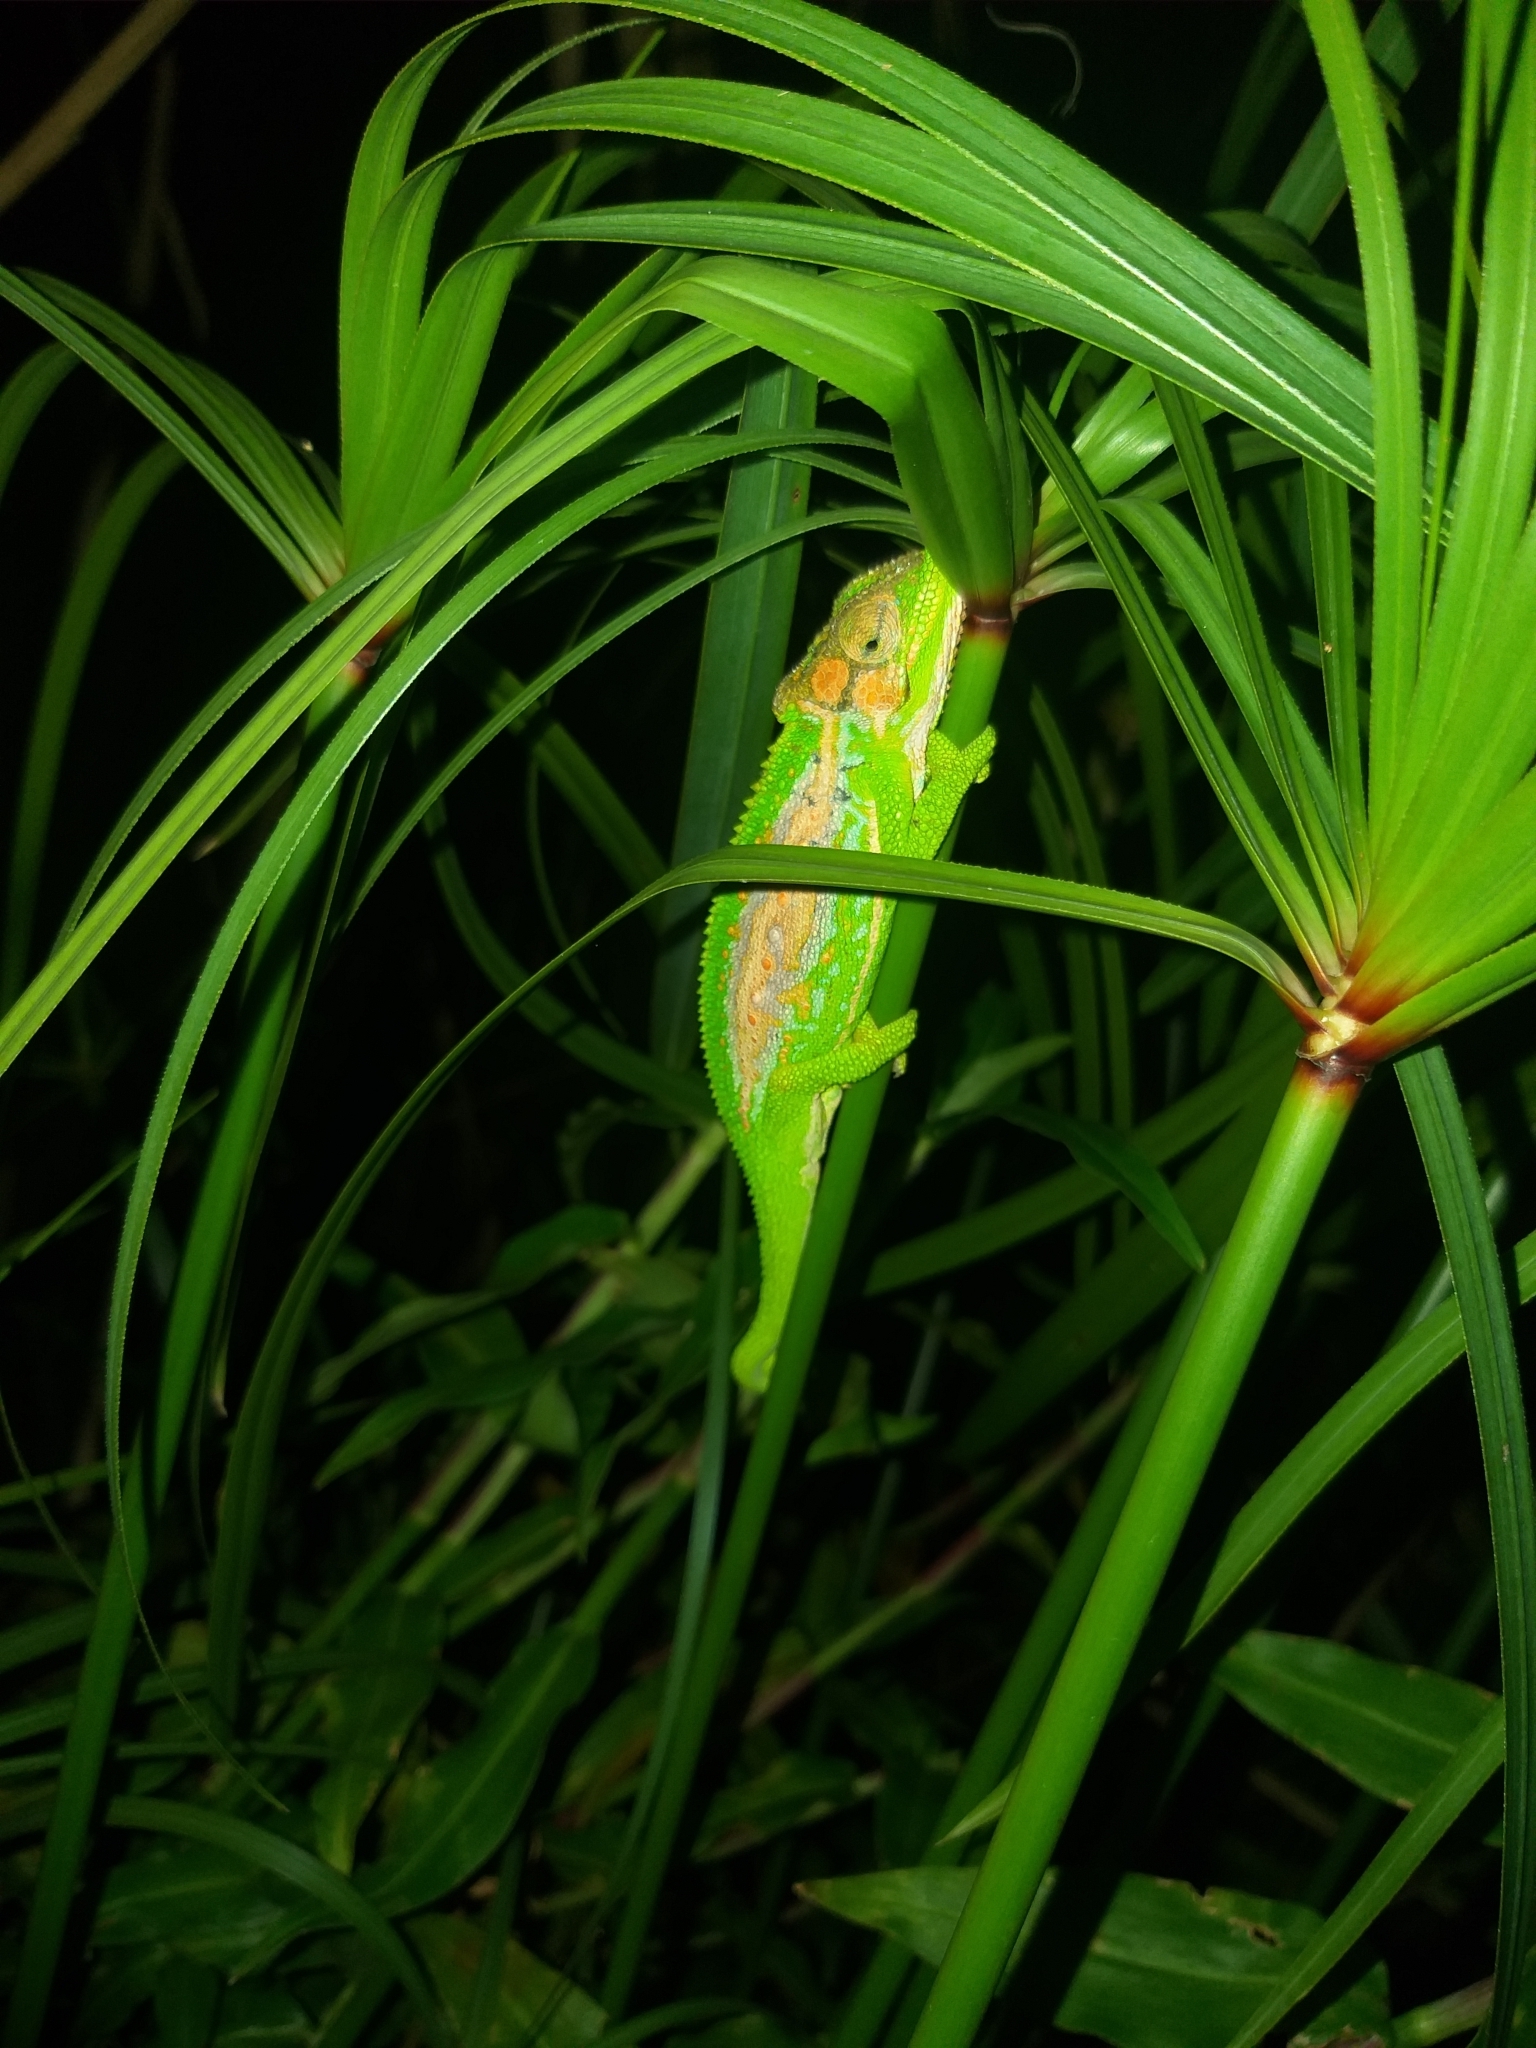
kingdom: Animalia
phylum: Chordata
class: Squamata
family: Chamaeleonidae
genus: Bradypodion
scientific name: Bradypodion pumilum
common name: Cape dwarf chameleon
